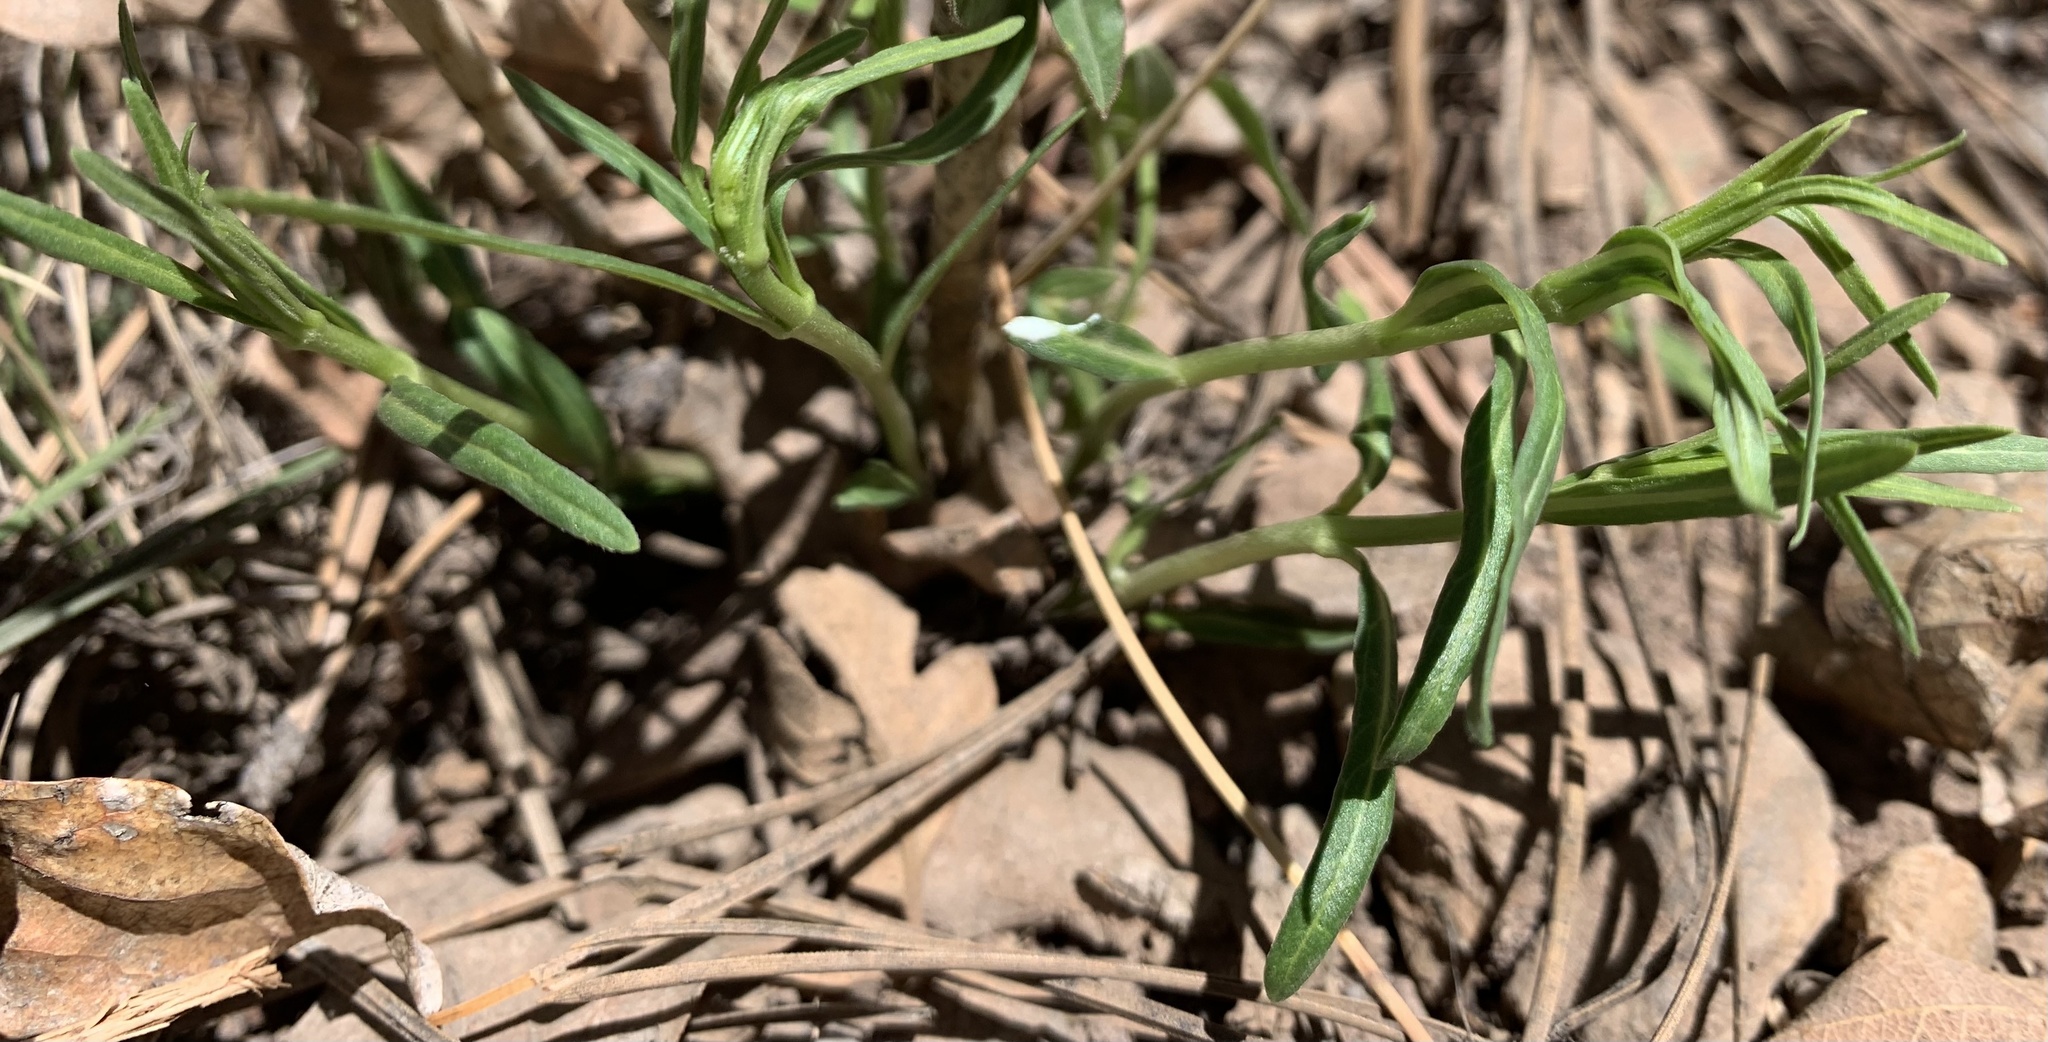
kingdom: Plantae
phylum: Tracheophyta
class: Magnoliopsida
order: Gentianales
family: Apocynaceae
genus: Asclepias
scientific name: Asclepias subverticillata
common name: Horsetail milkweed
